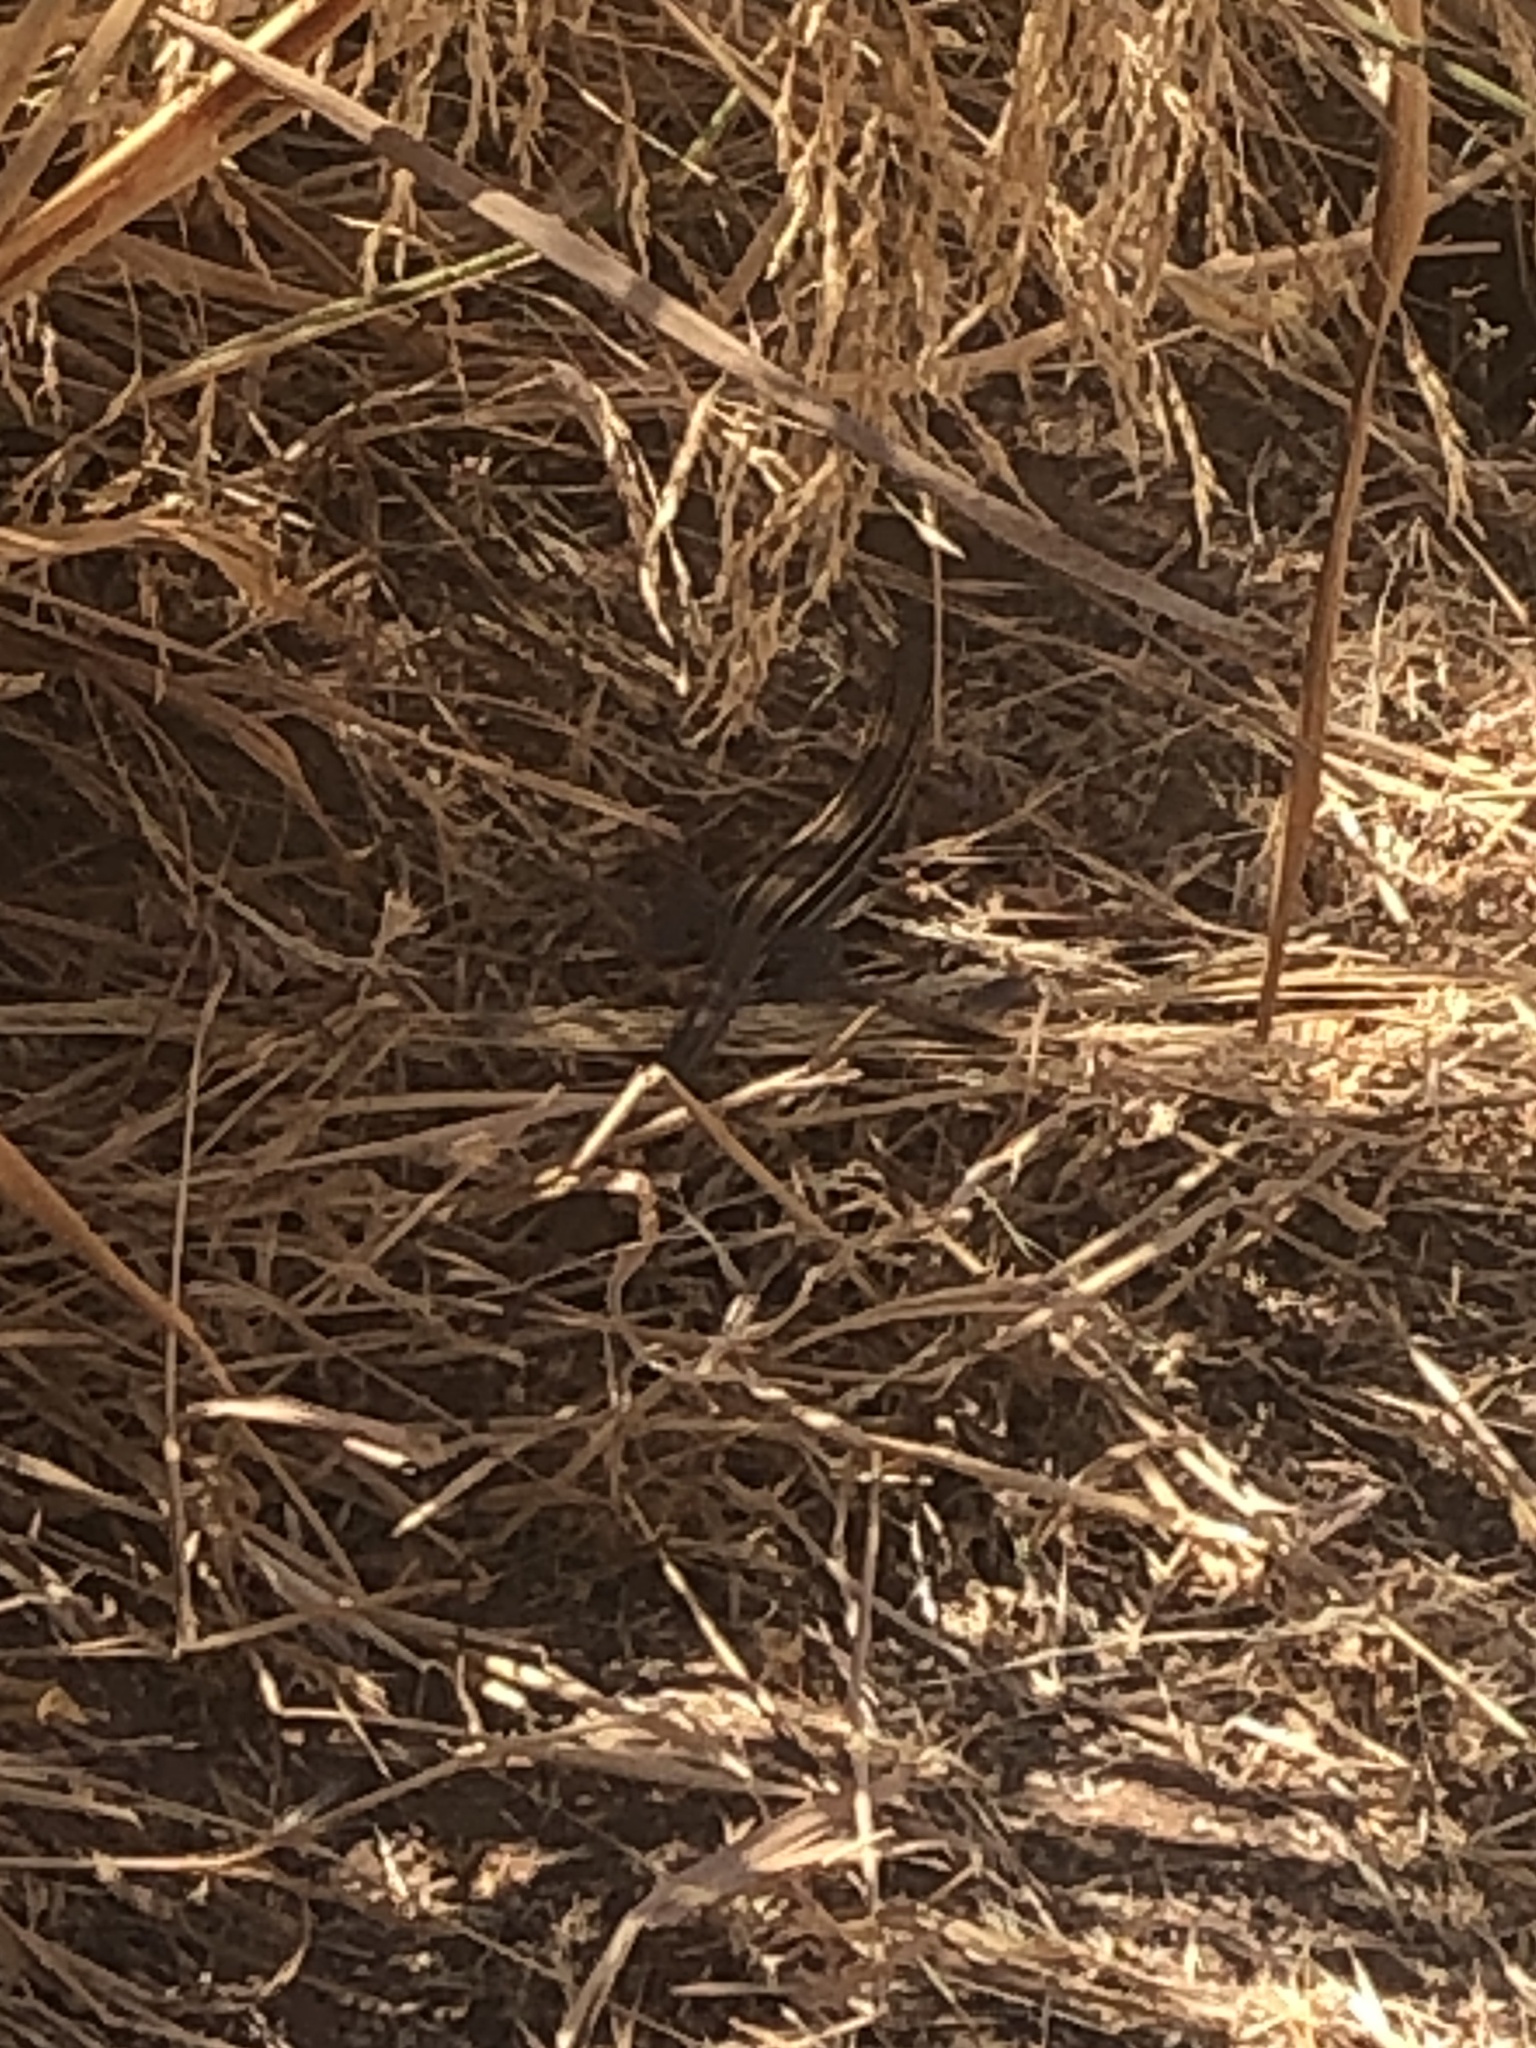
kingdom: Animalia
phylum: Chordata
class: Squamata
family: Teiidae
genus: Aspidoscelis
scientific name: Aspidoscelis hyperythrus
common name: Orange-throated race-runner
